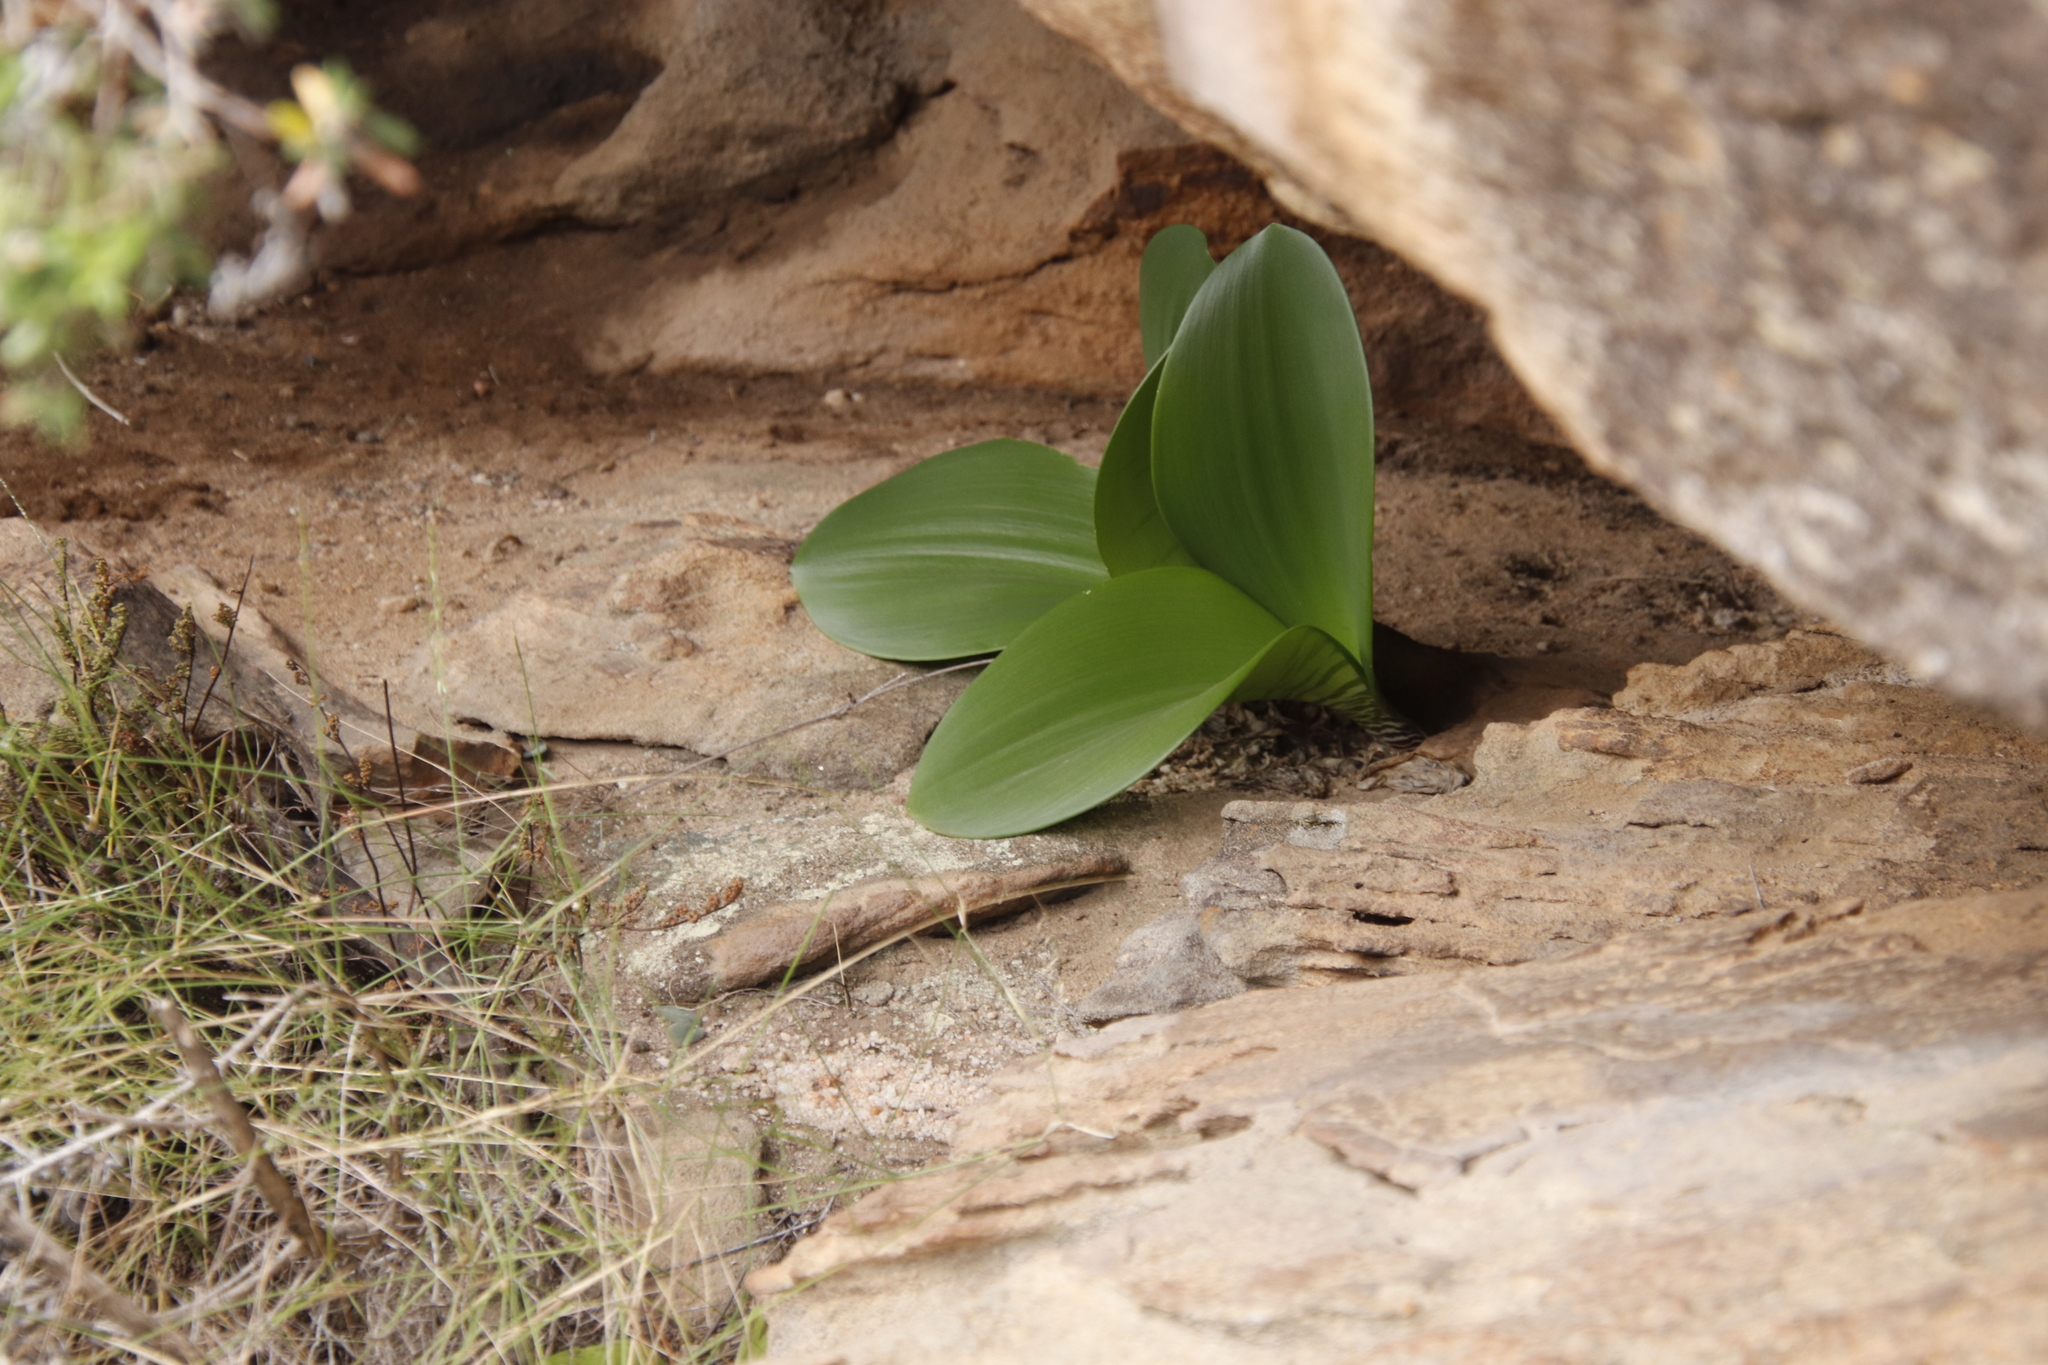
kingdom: Plantae
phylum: Tracheophyta
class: Liliopsida
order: Asparagales
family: Amaryllidaceae
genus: Haemanthus
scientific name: Haemanthus coccineus
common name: Cape-tulip
